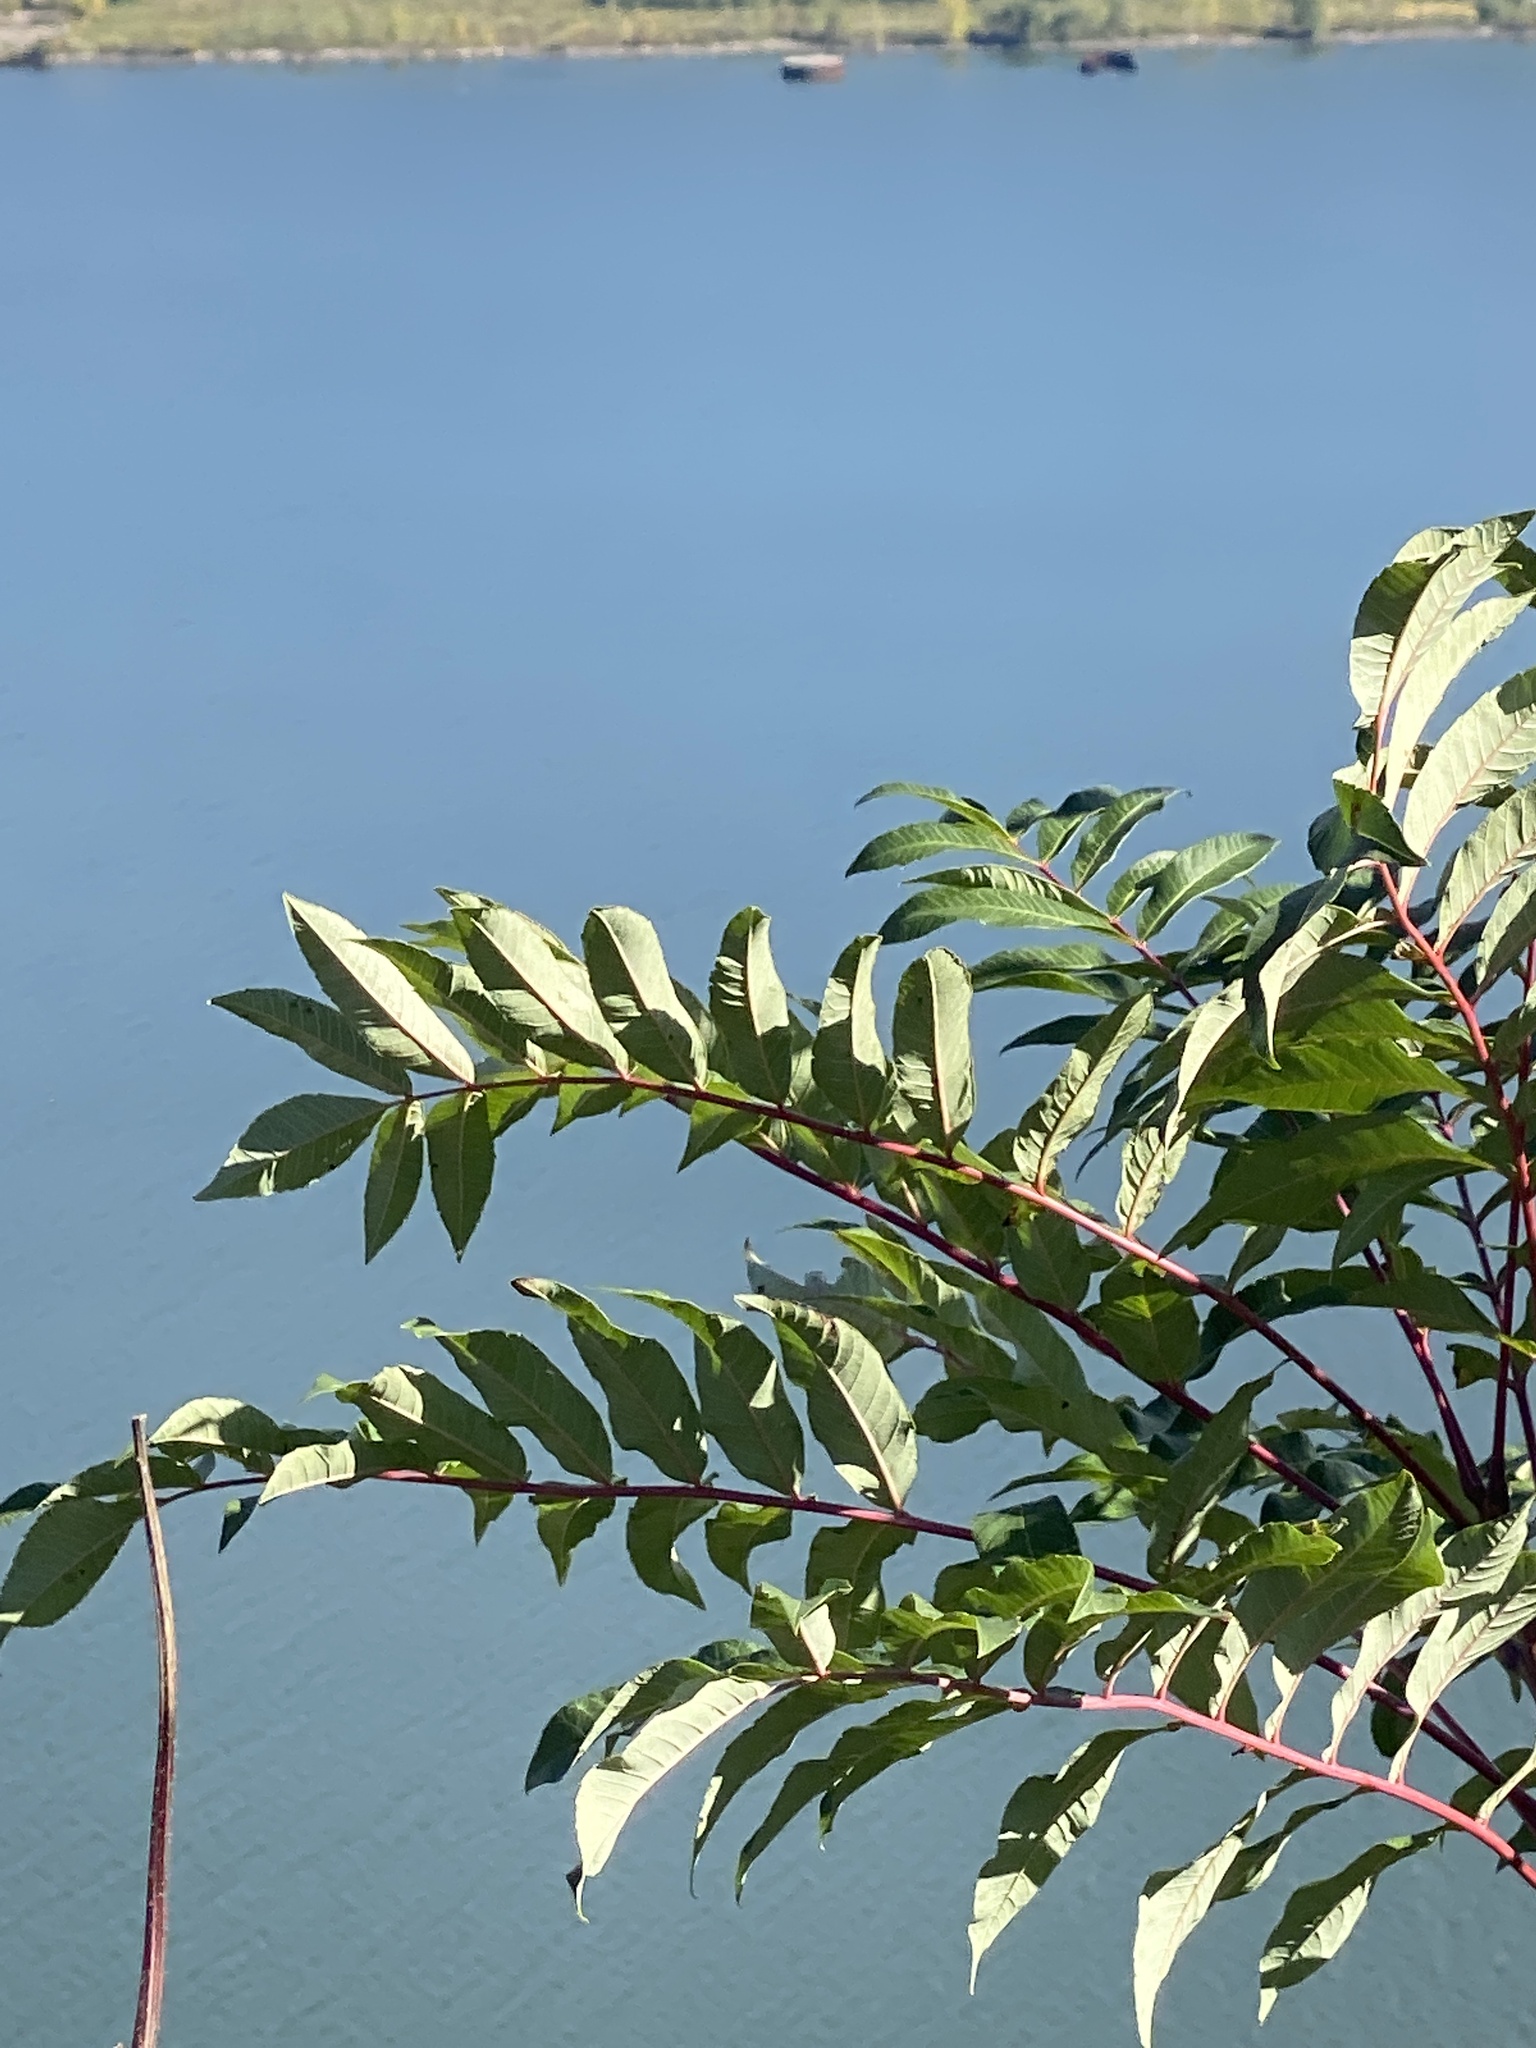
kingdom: Plantae
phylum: Tracheophyta
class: Magnoliopsida
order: Sapindales
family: Anacardiaceae
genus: Rhus
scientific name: Rhus glabra
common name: Scarlet sumac
